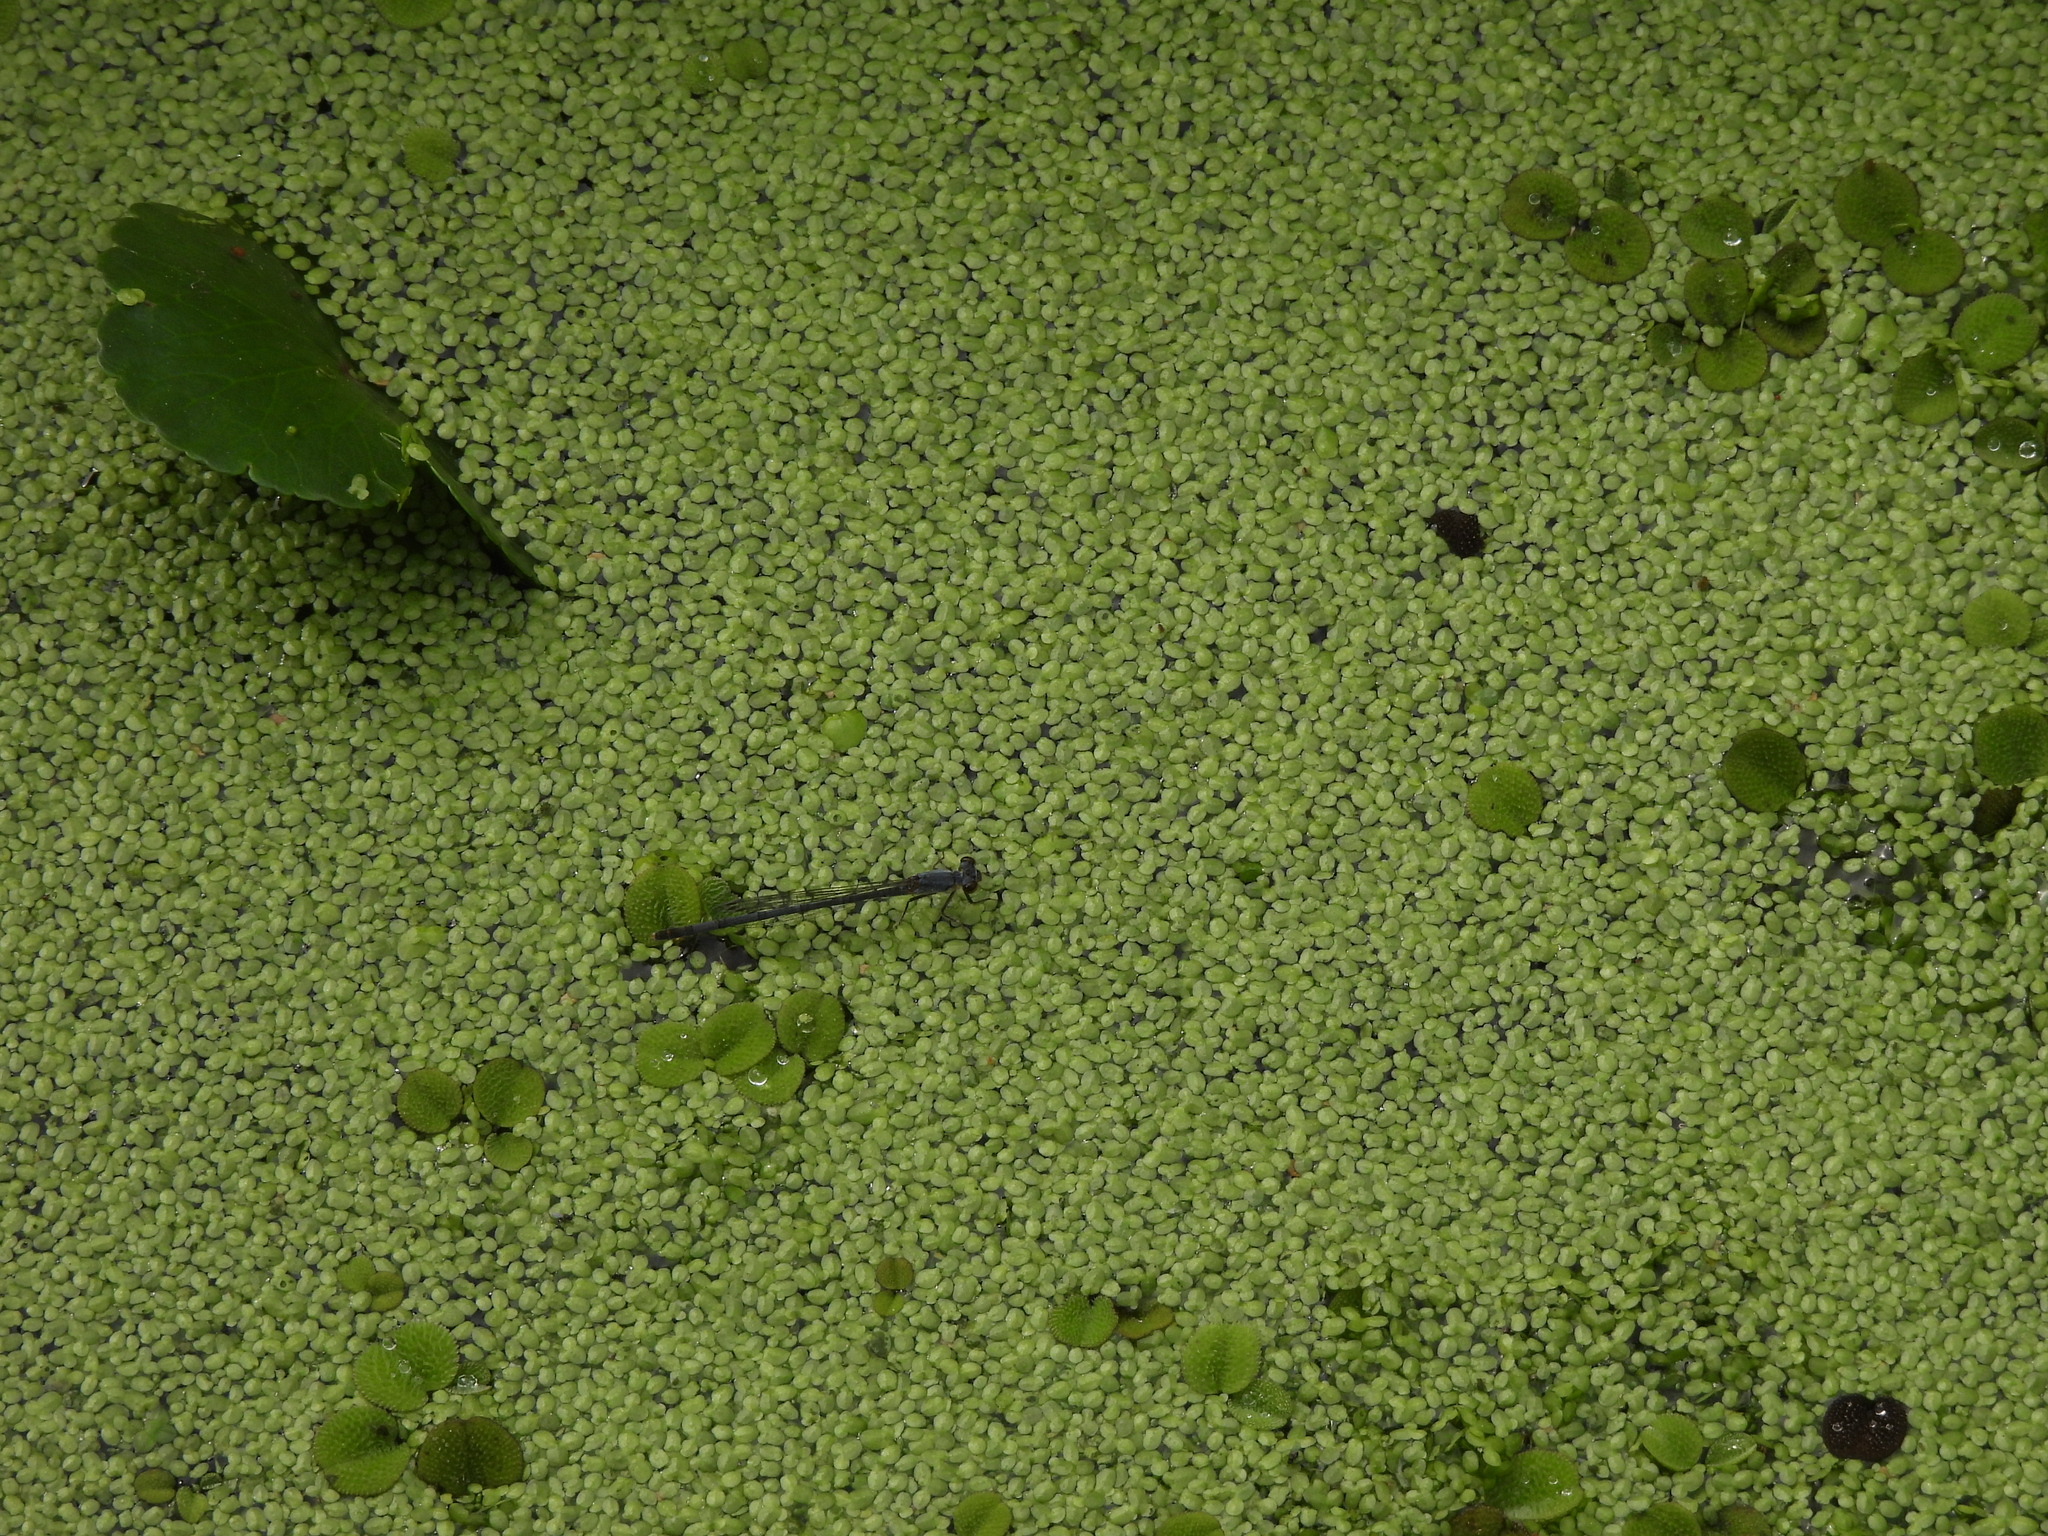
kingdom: Animalia
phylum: Arthropoda
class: Insecta
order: Odonata
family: Coenagrionidae
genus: Ischnura
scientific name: Ischnura posita
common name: Fragile forktail
